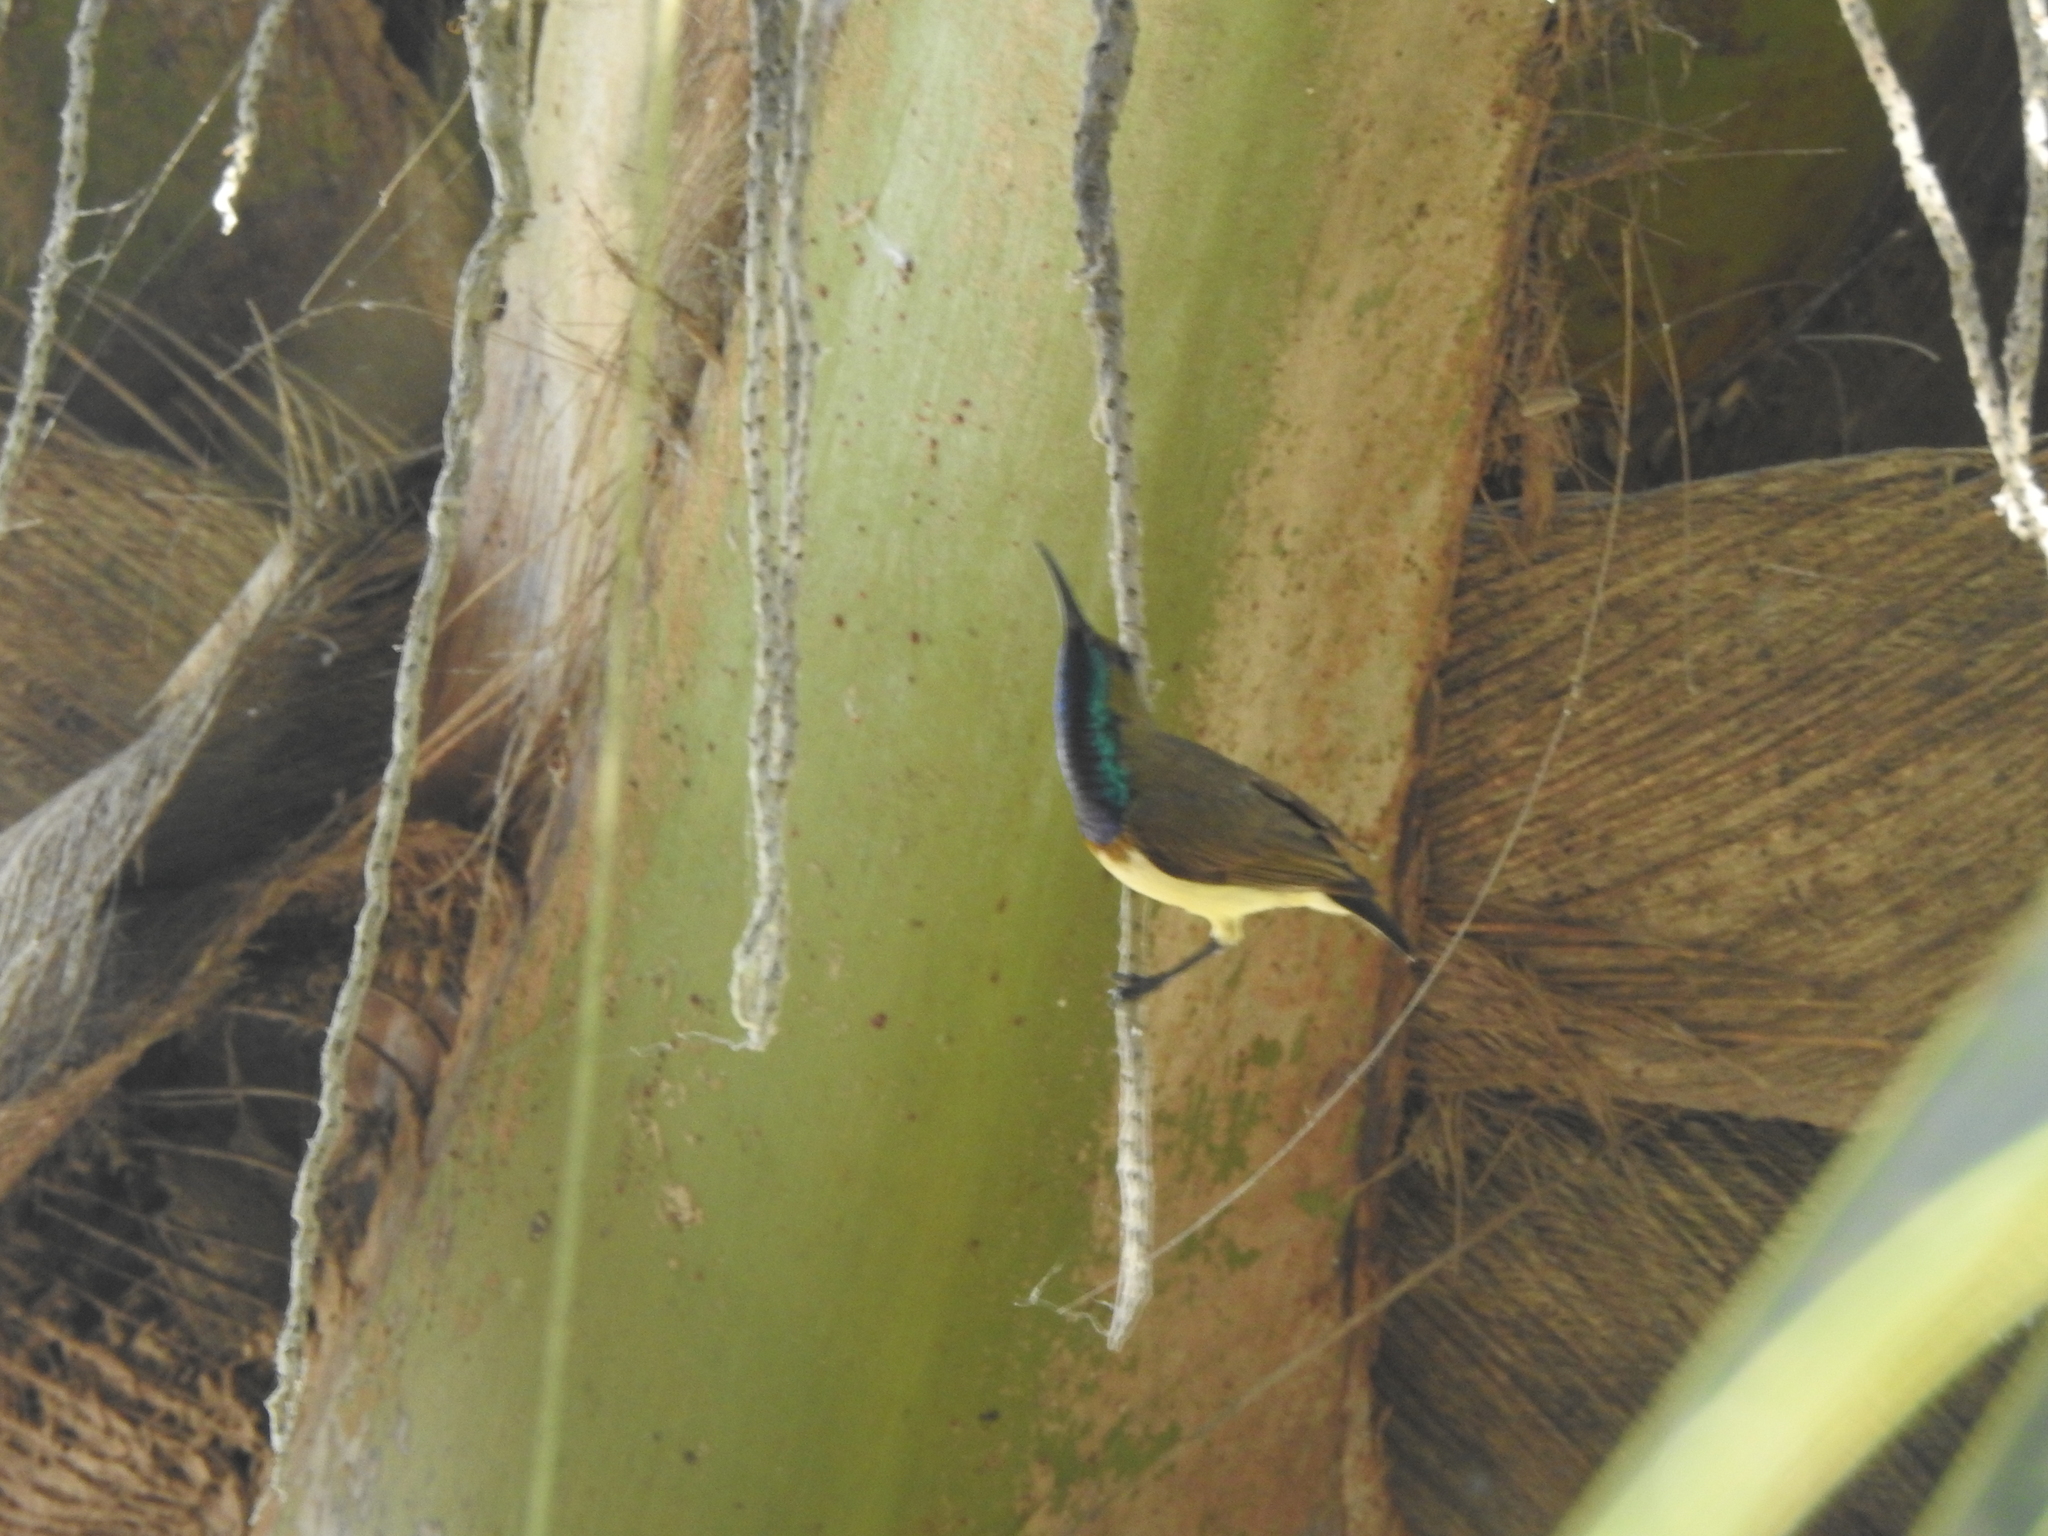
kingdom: Animalia
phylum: Chordata
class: Aves
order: Passeriformes
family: Nectariniidae
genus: Cinnyris
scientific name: Cinnyris
